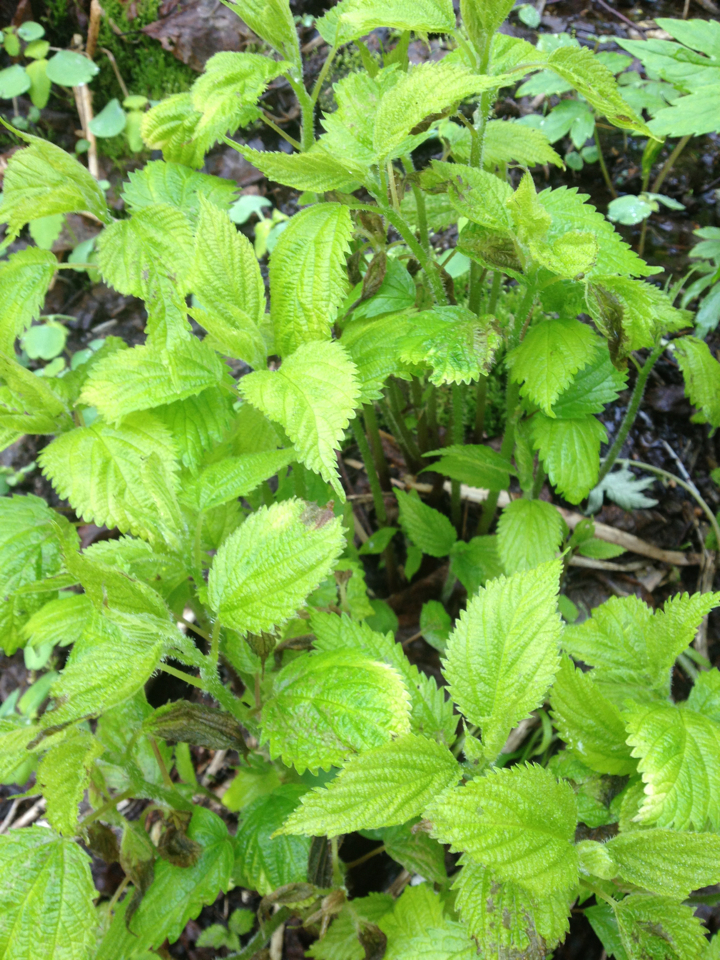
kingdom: Plantae
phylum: Tracheophyta
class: Magnoliopsida
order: Rosales
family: Urticaceae
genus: Laportea
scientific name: Laportea canadensis
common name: Canada nettle
